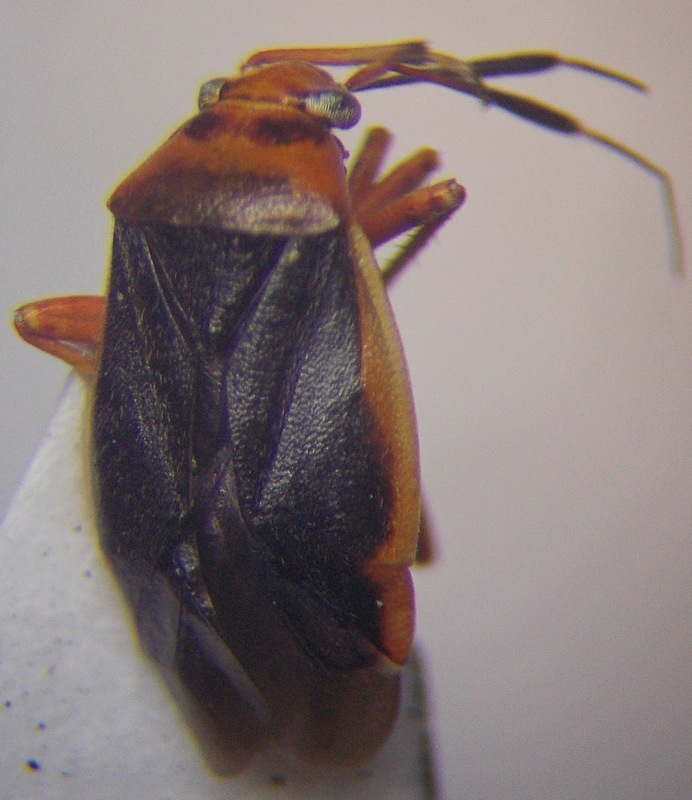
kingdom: Animalia
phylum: Arthropoda
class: Insecta
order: Hemiptera
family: Miridae
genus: Capsus
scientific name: Capsus cinctus
